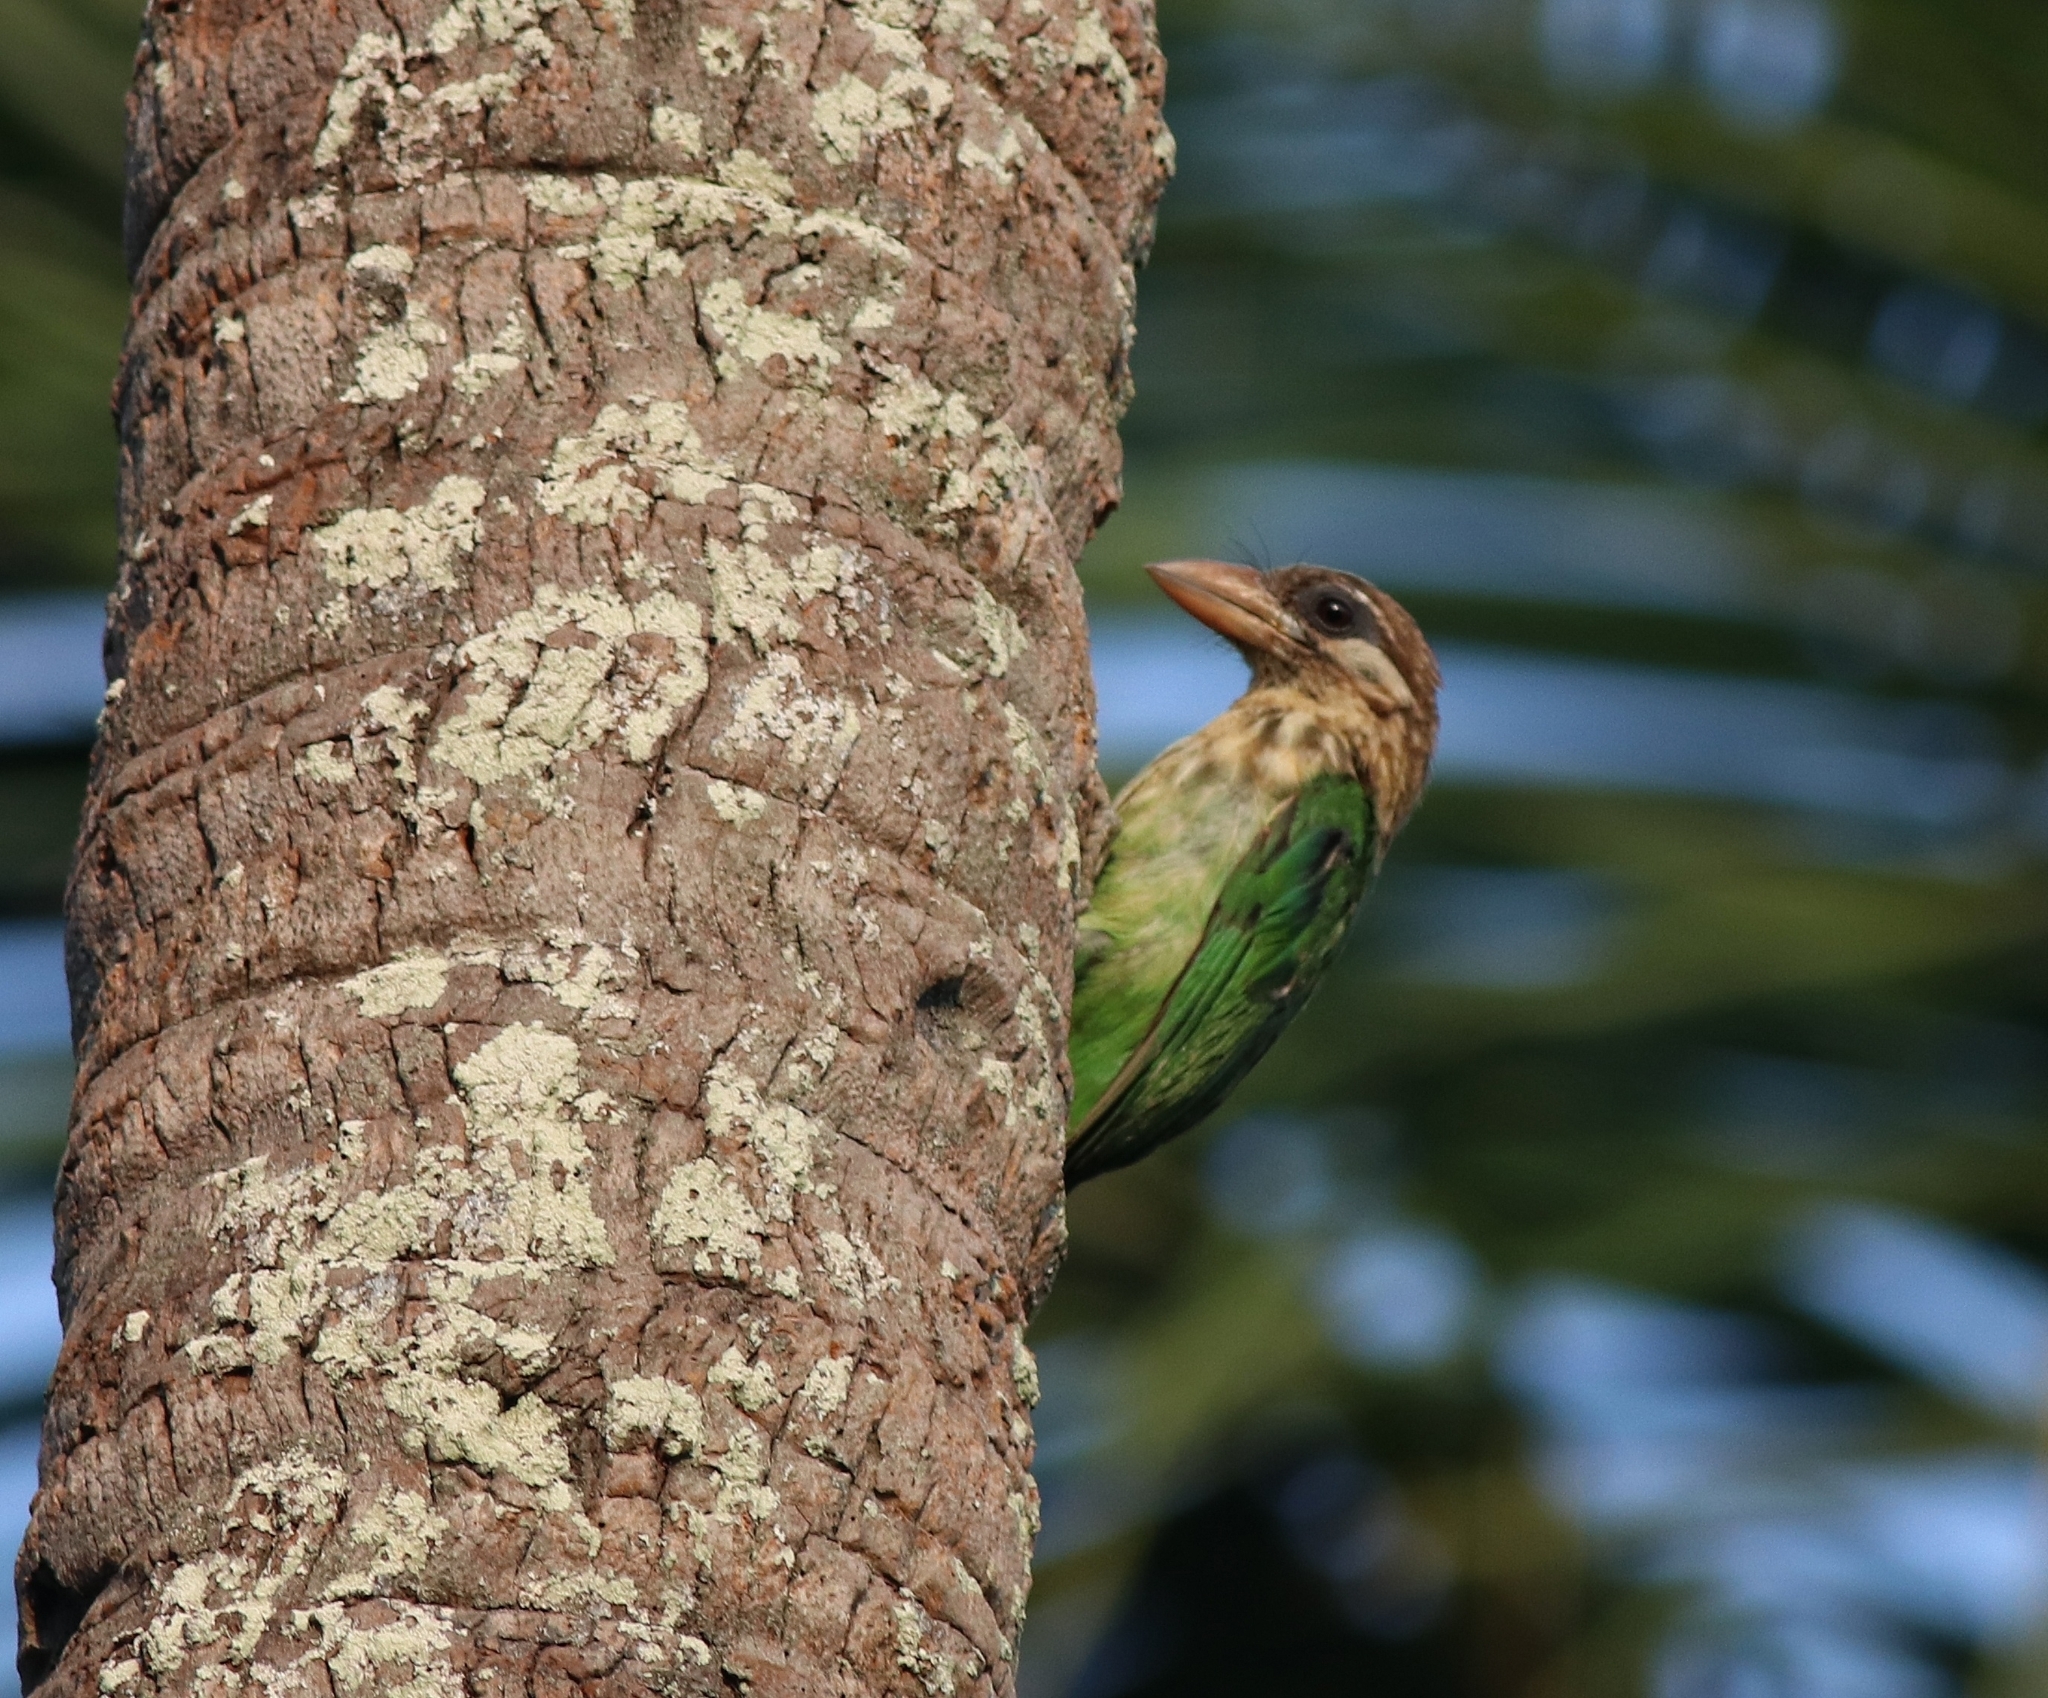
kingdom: Animalia
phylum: Chordata
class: Aves
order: Piciformes
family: Megalaimidae
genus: Psilopogon
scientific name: Psilopogon viridis
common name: White-cheeked barbet
